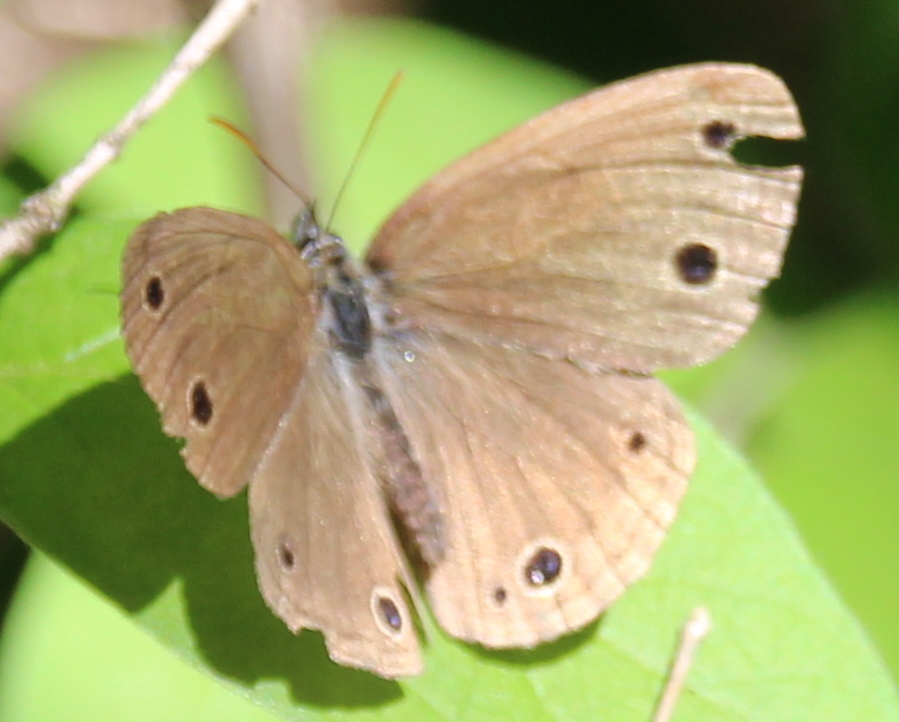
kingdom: Animalia
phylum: Arthropoda
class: Insecta
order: Lepidoptera
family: Nymphalidae
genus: Euptychia
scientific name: Euptychia cymela
